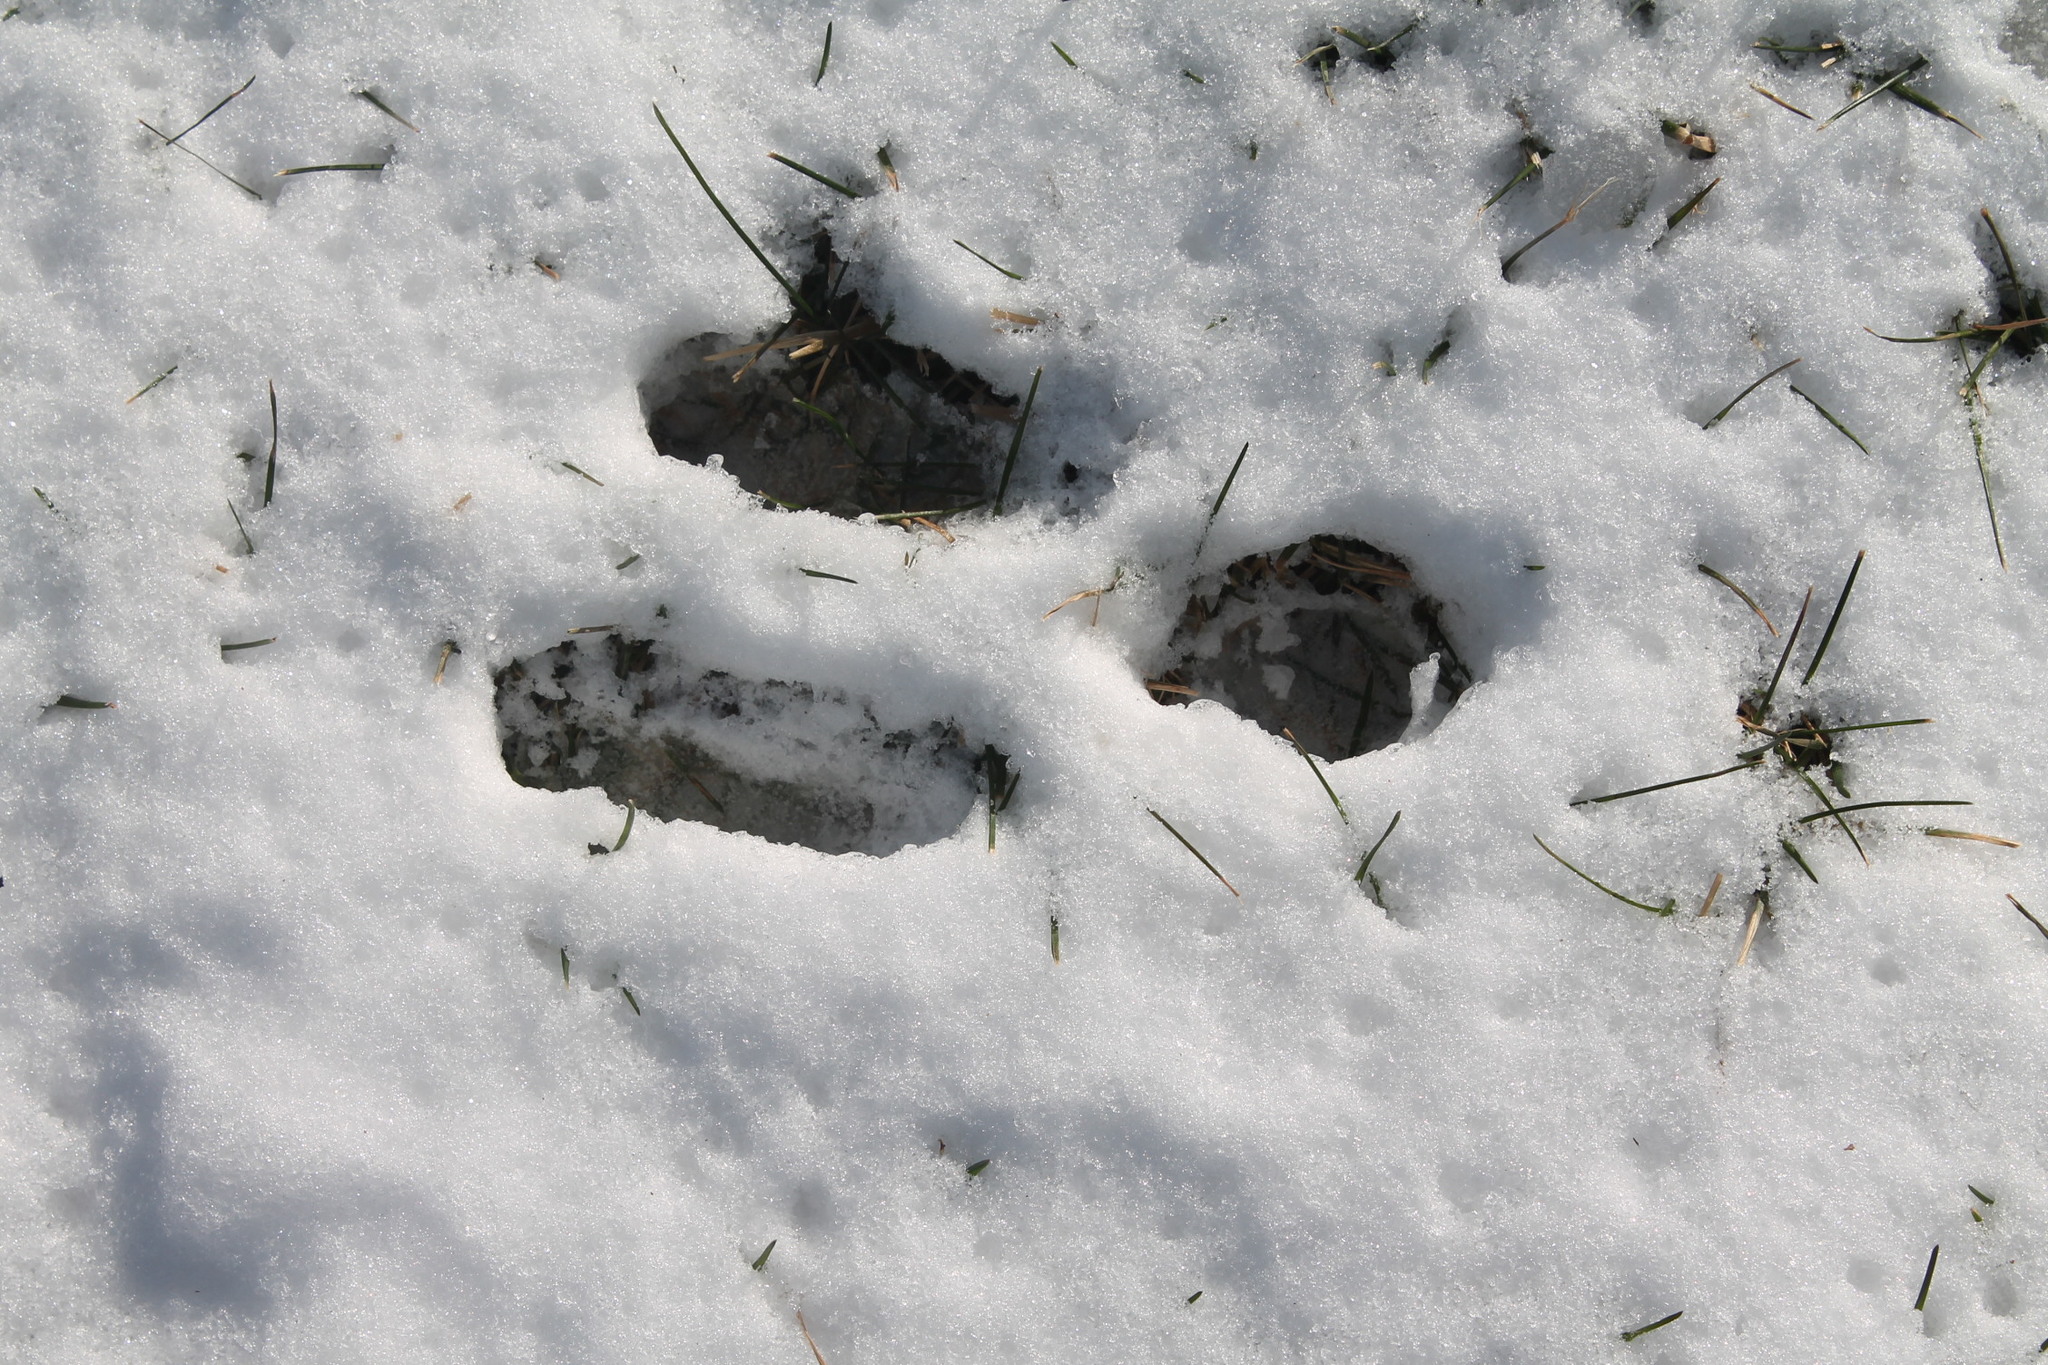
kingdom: Animalia
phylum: Chordata
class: Mammalia
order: Lagomorpha
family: Leporidae
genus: Sylvilagus
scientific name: Sylvilagus floridanus
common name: Eastern cottontail
